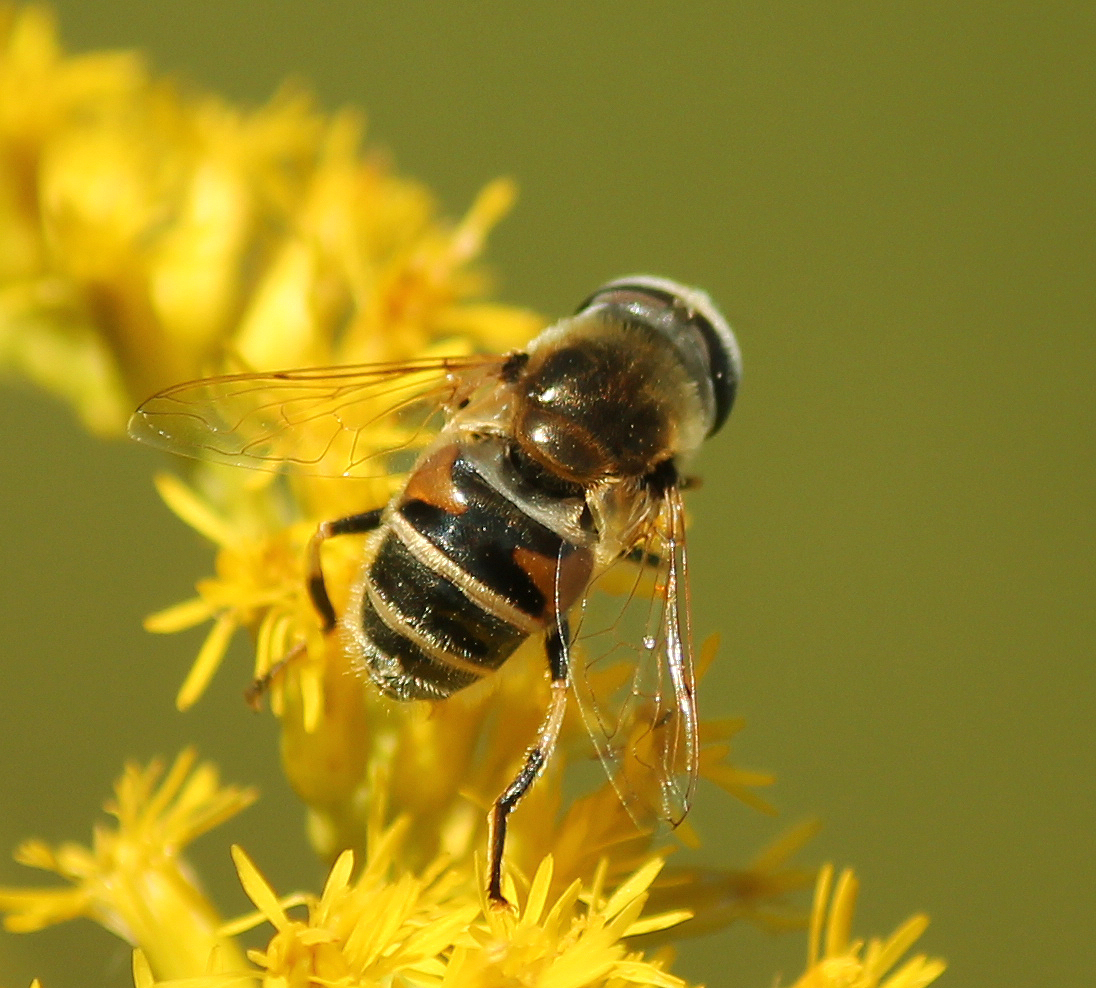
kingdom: Animalia
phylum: Arthropoda
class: Insecta
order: Diptera
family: Syrphidae
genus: Eristalis
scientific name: Eristalis stipator
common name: Yellow-shouldered drone fly
